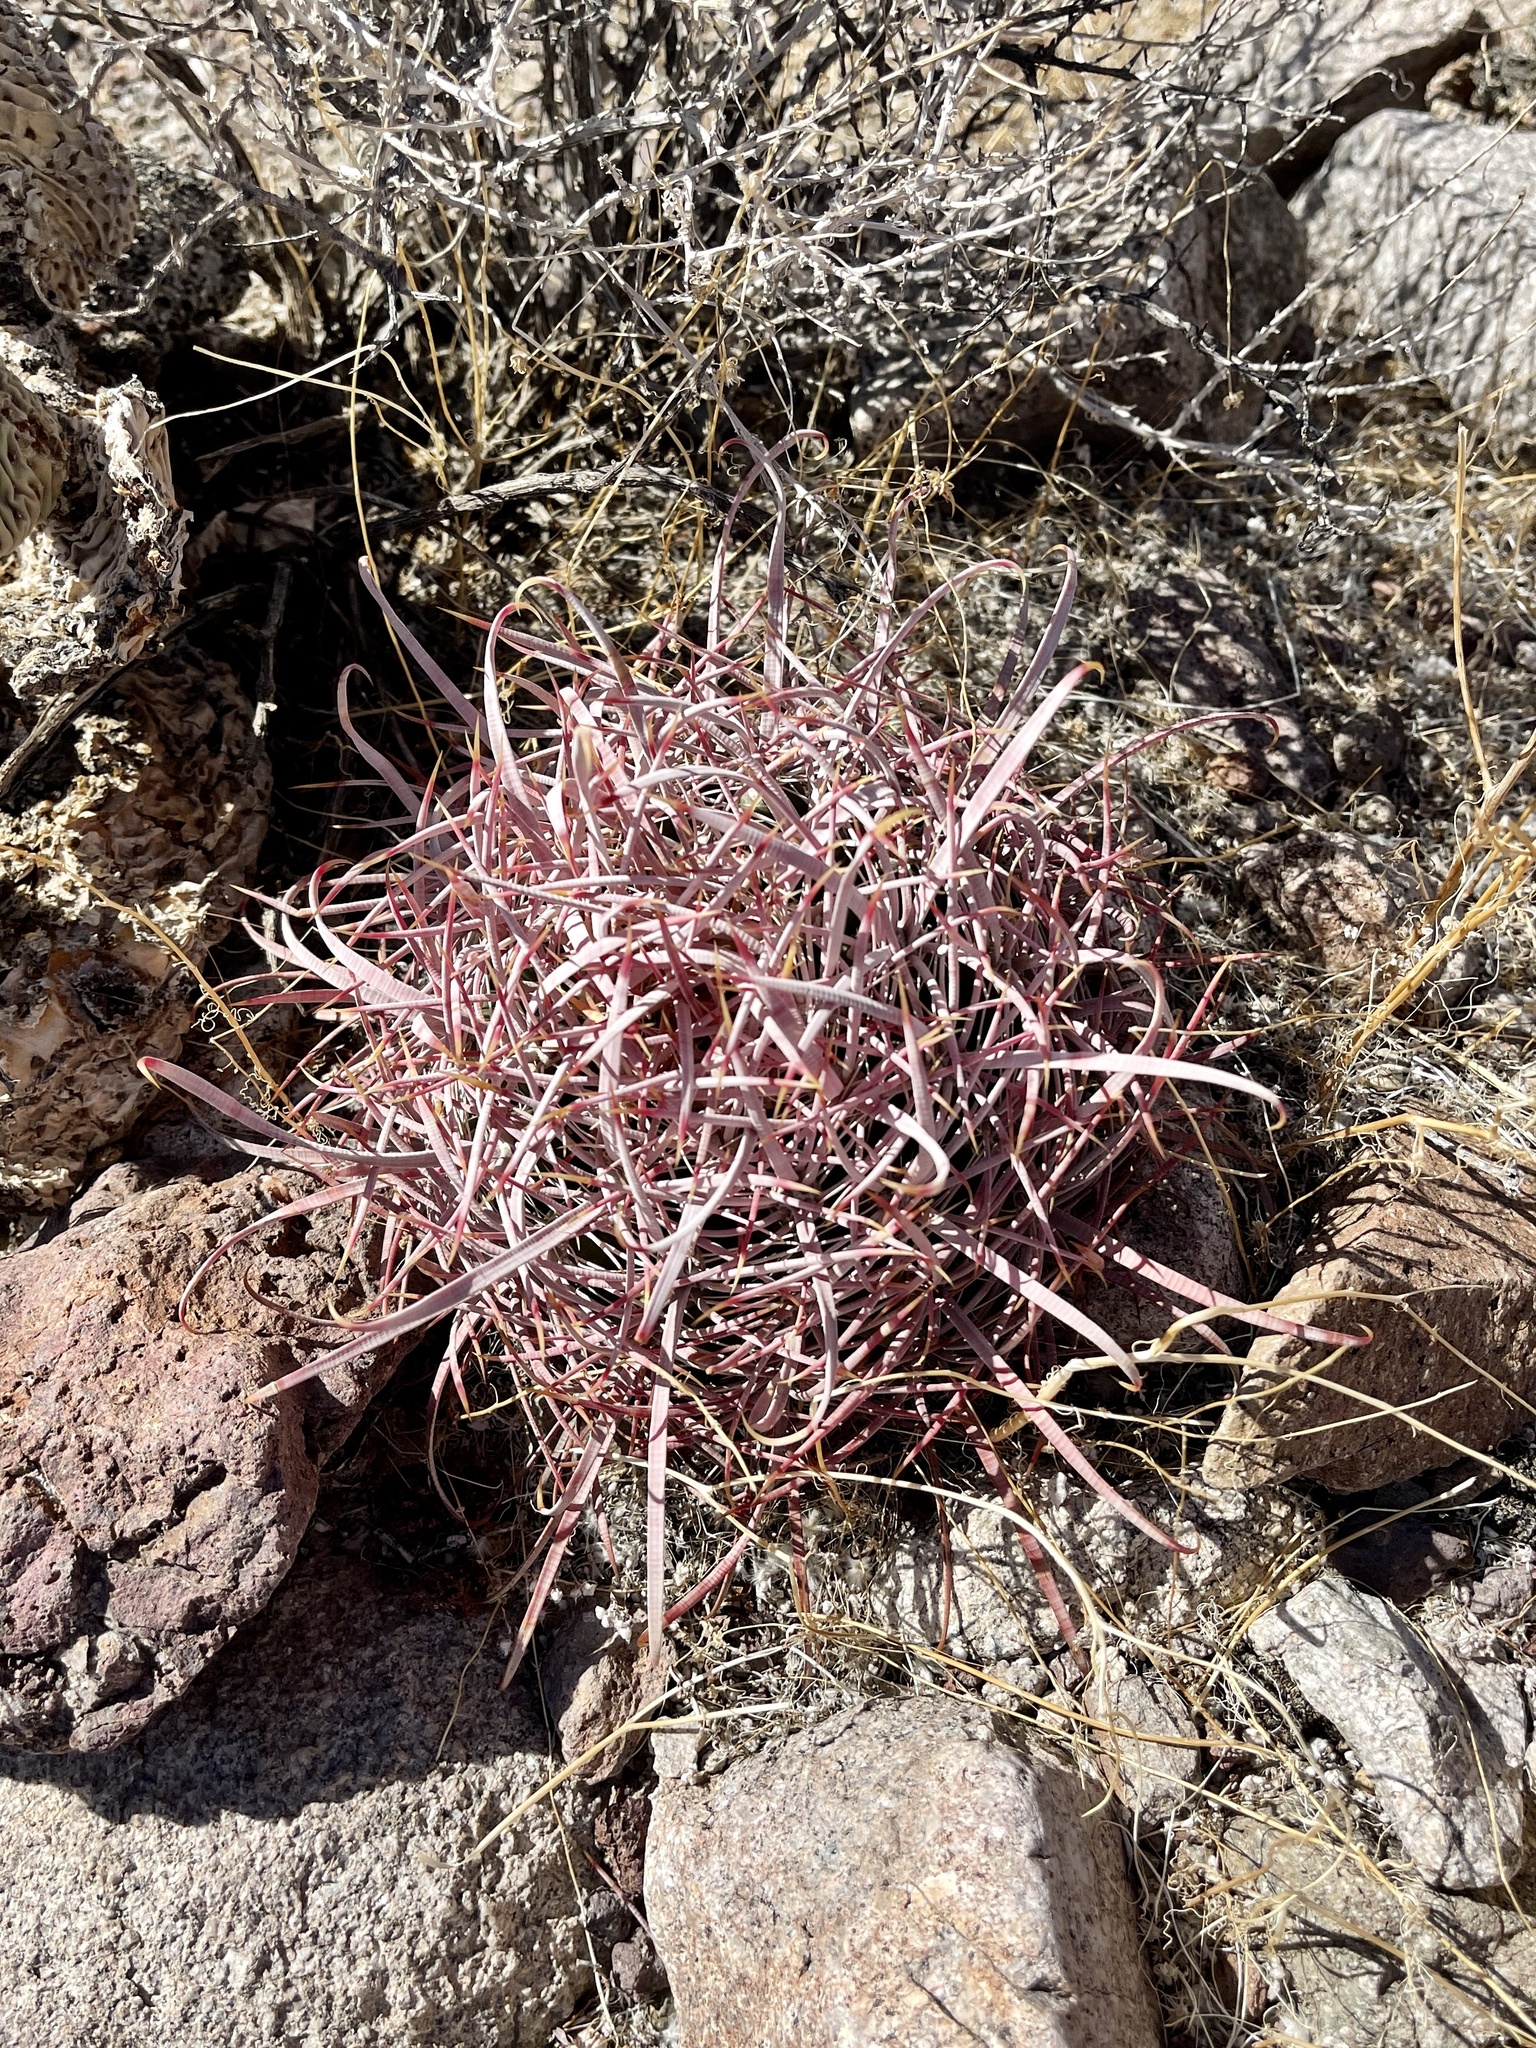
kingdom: Plantae
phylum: Tracheophyta
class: Magnoliopsida
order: Caryophyllales
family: Cactaceae
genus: Ferocactus
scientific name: Ferocactus cylindraceus
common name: California barrel cactus
